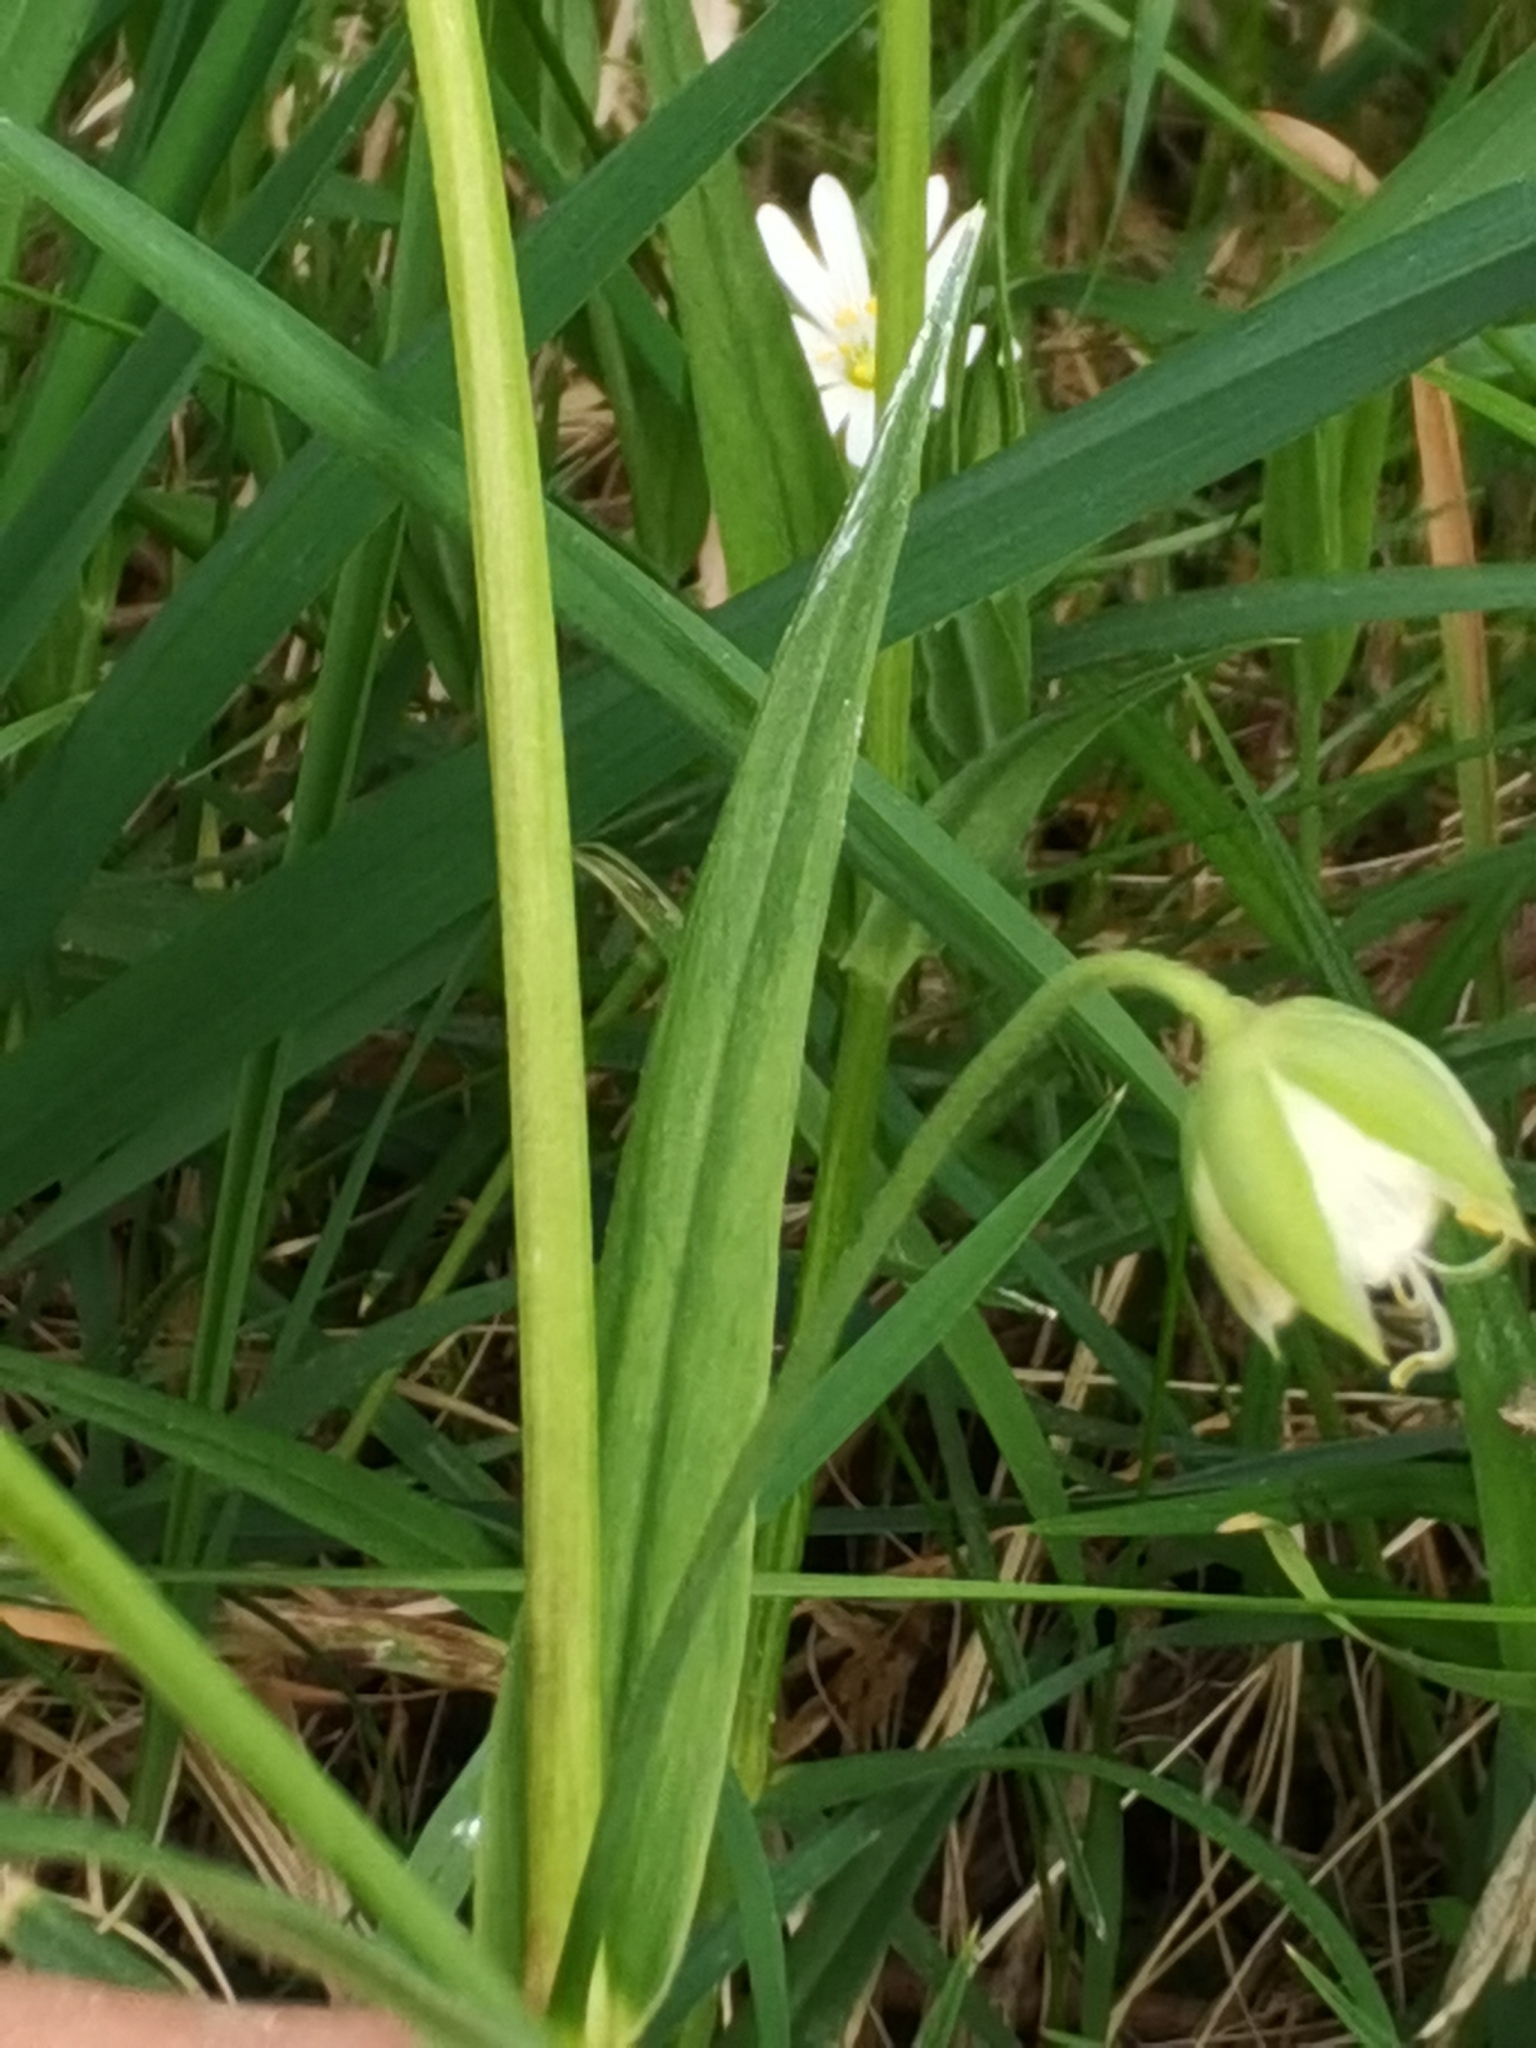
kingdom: Plantae
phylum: Tracheophyta
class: Magnoliopsida
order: Caryophyllales
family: Caryophyllaceae
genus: Rabelera
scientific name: Rabelera holostea
